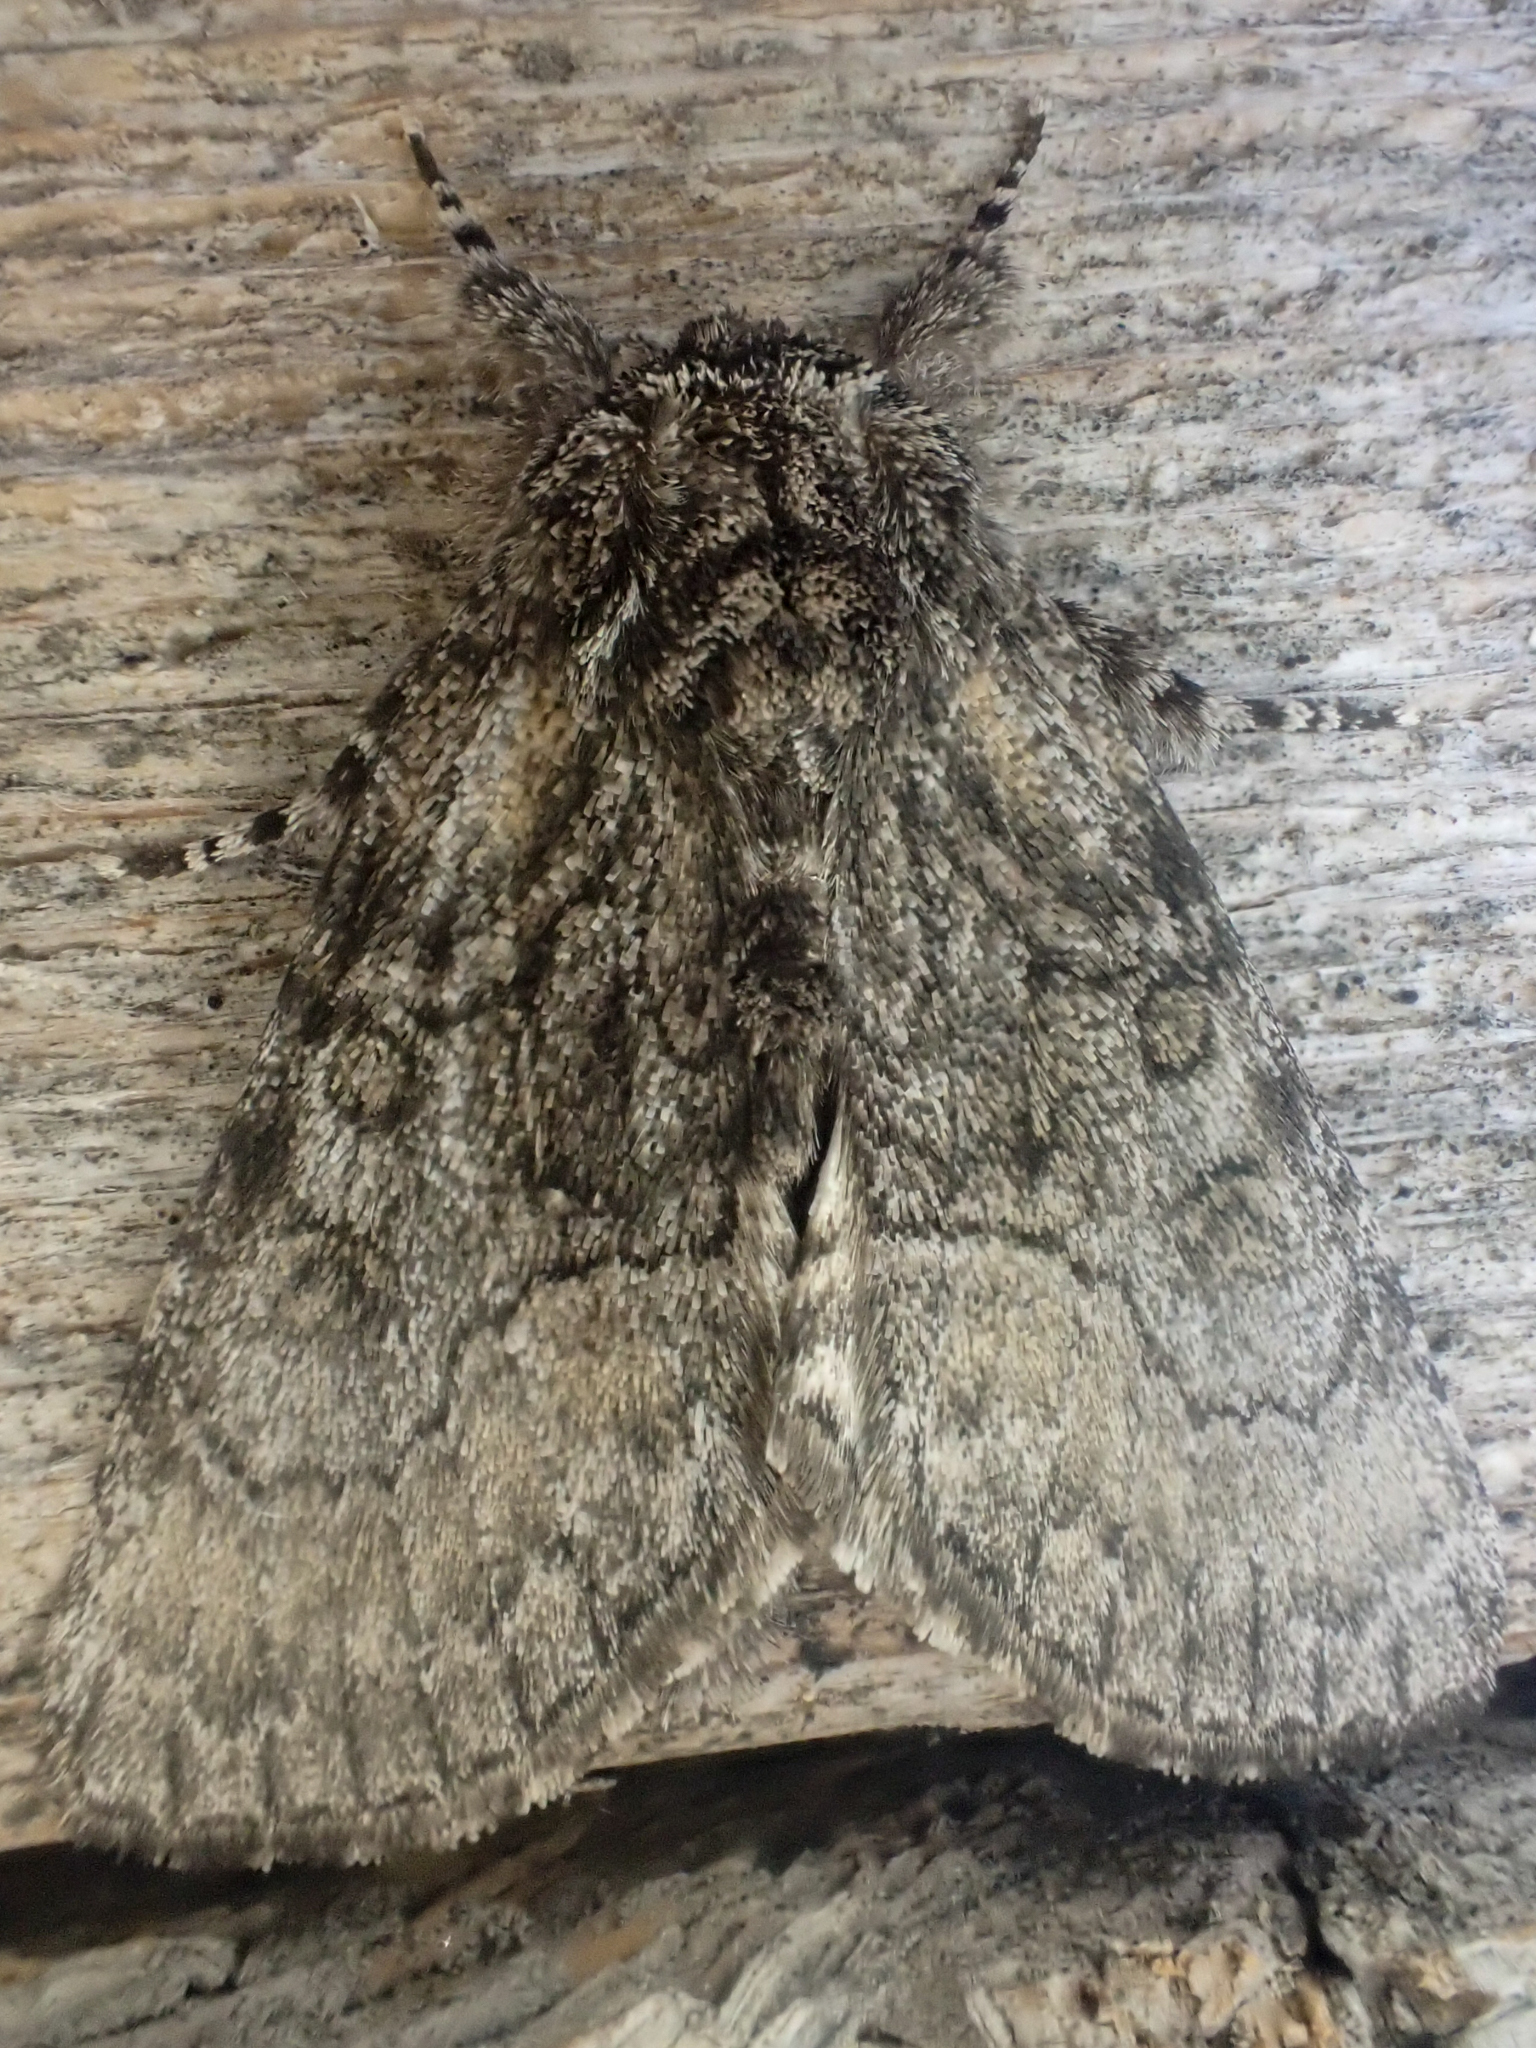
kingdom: Animalia
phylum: Arthropoda
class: Insecta
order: Lepidoptera
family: Noctuidae
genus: Raphia
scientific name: Raphia frater
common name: Brother
